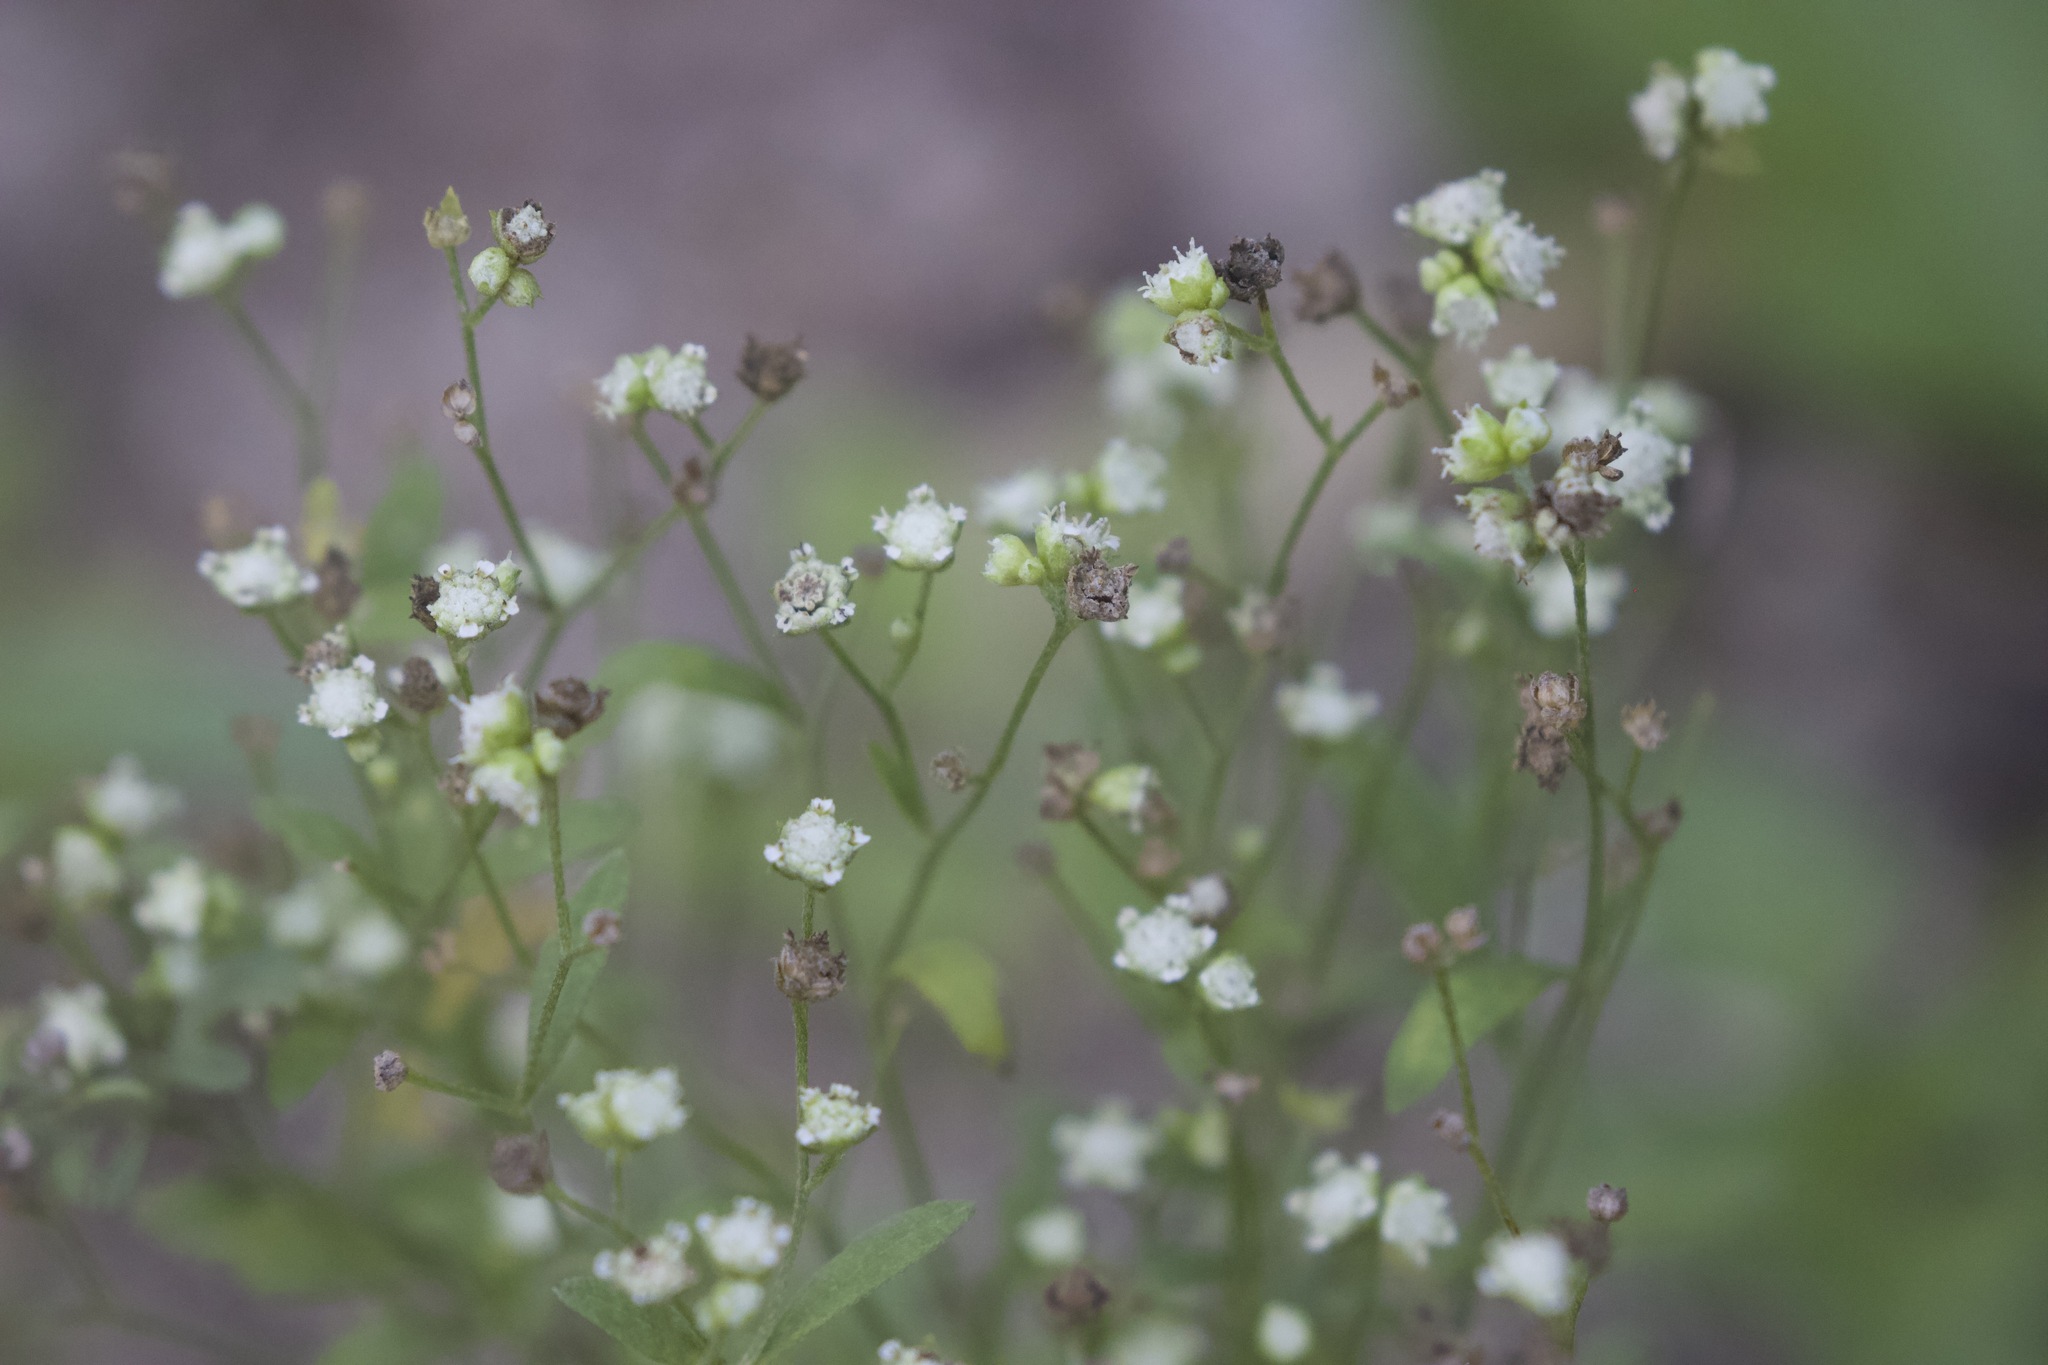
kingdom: Plantae
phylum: Tracheophyta
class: Magnoliopsida
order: Asterales
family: Asteraceae
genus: Parthenium
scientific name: Parthenium hysterophorus
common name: Santa maria feverfew
